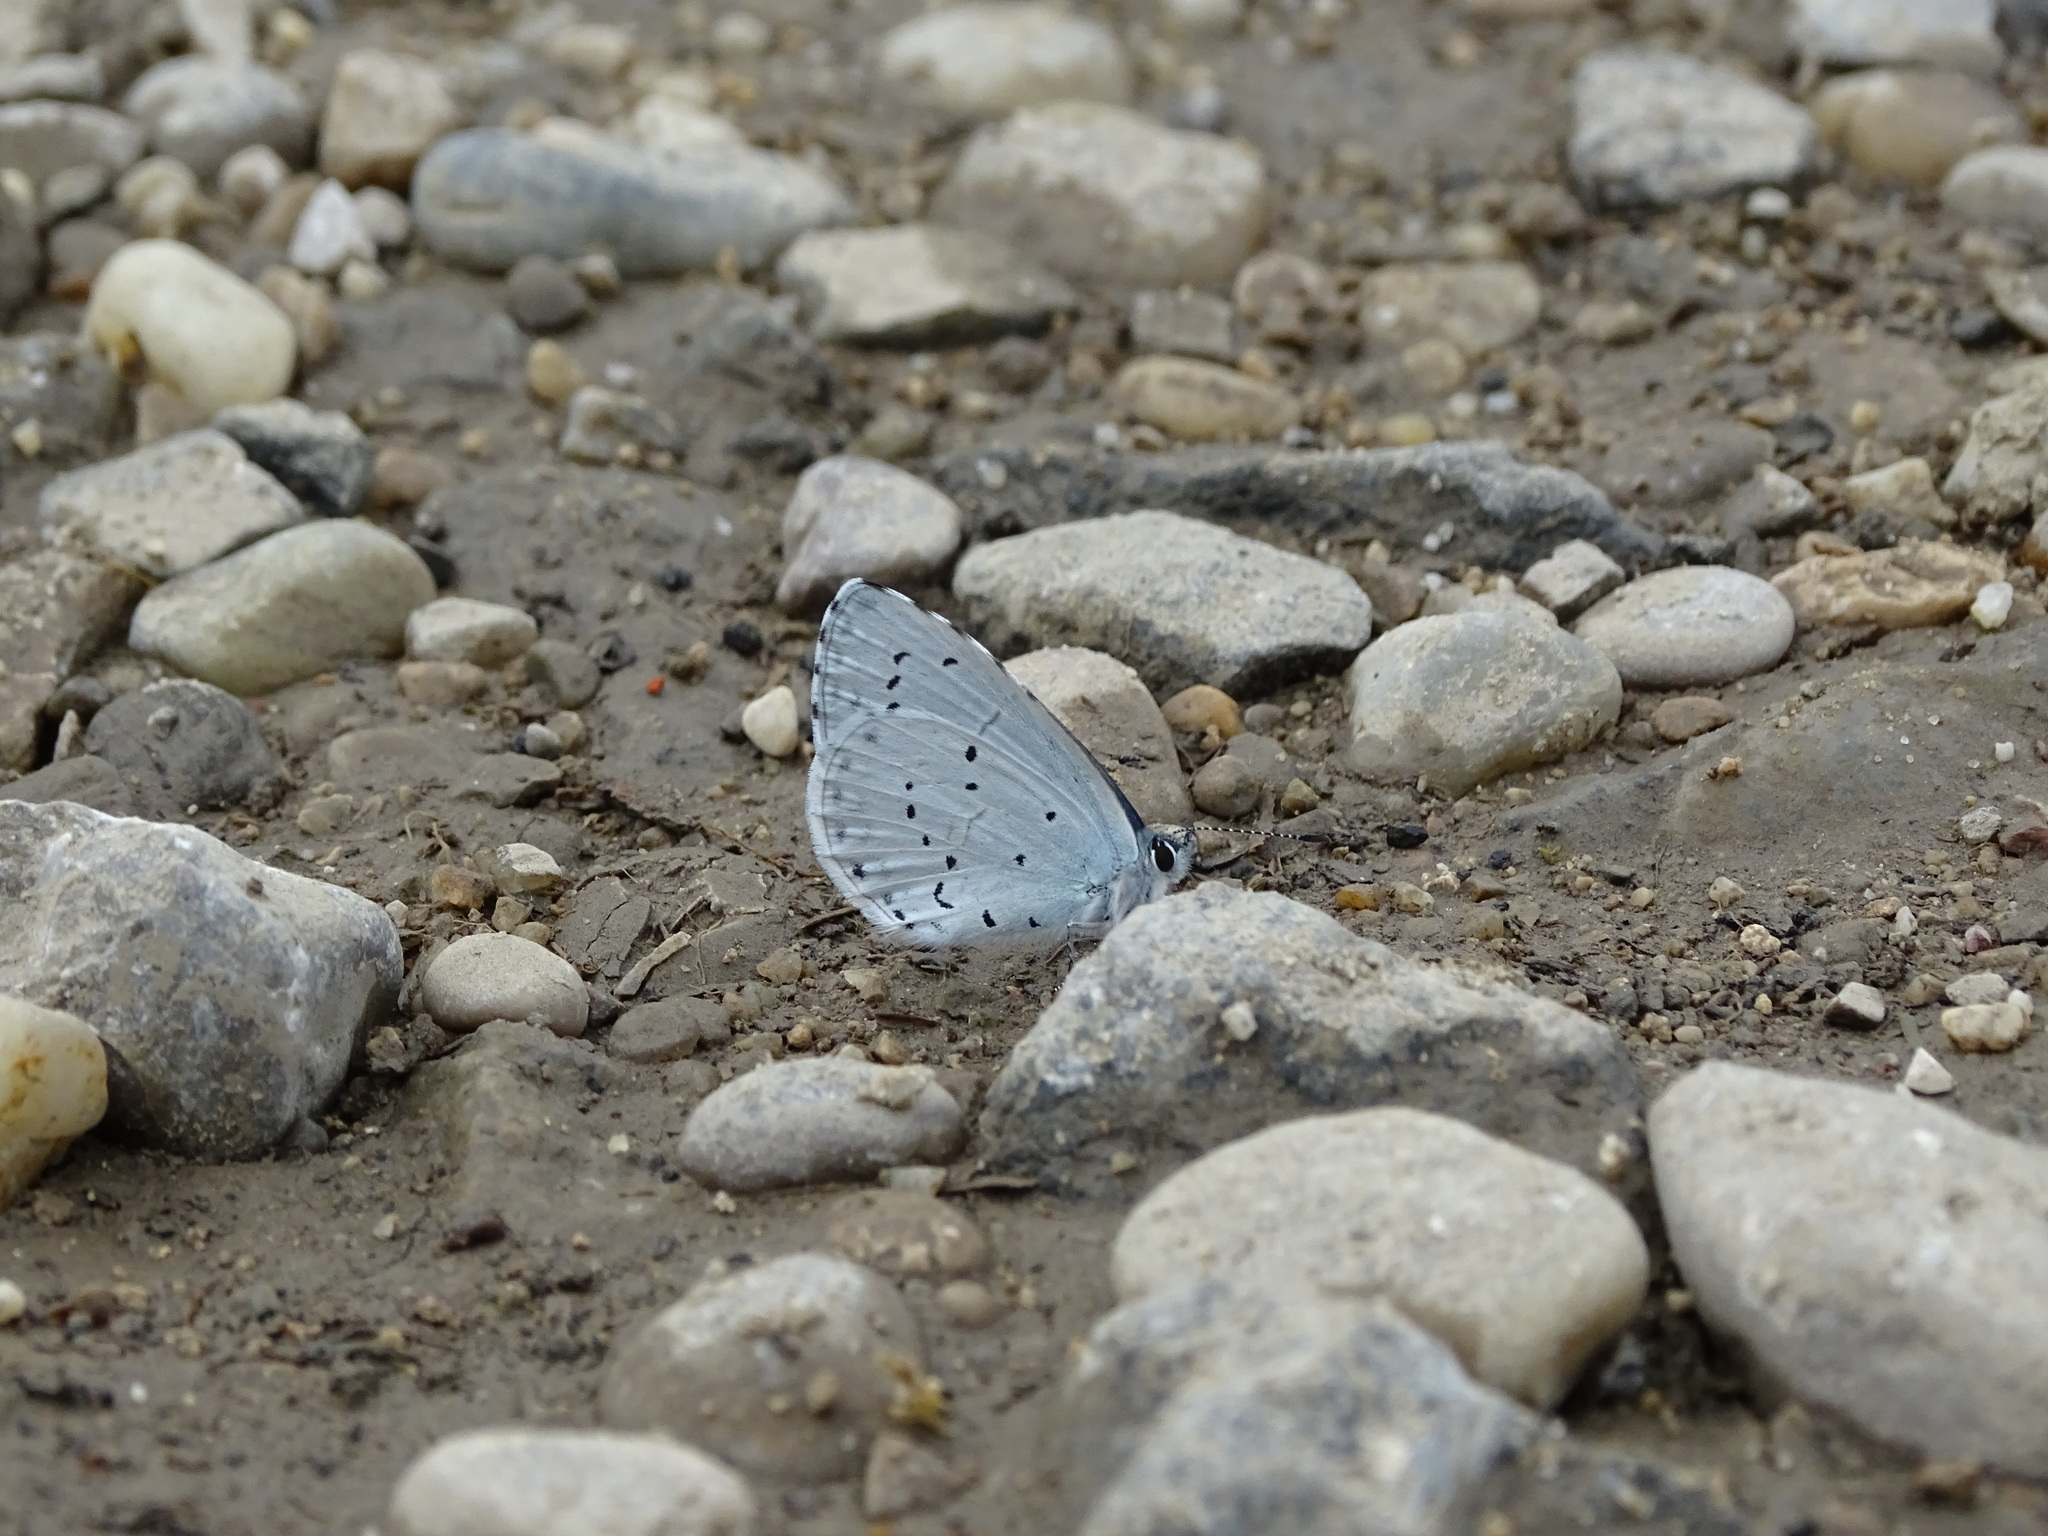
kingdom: Animalia
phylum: Arthropoda
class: Insecta
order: Lepidoptera
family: Lycaenidae
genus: Celastrina
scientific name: Celastrina argiolus
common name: Holly blue
